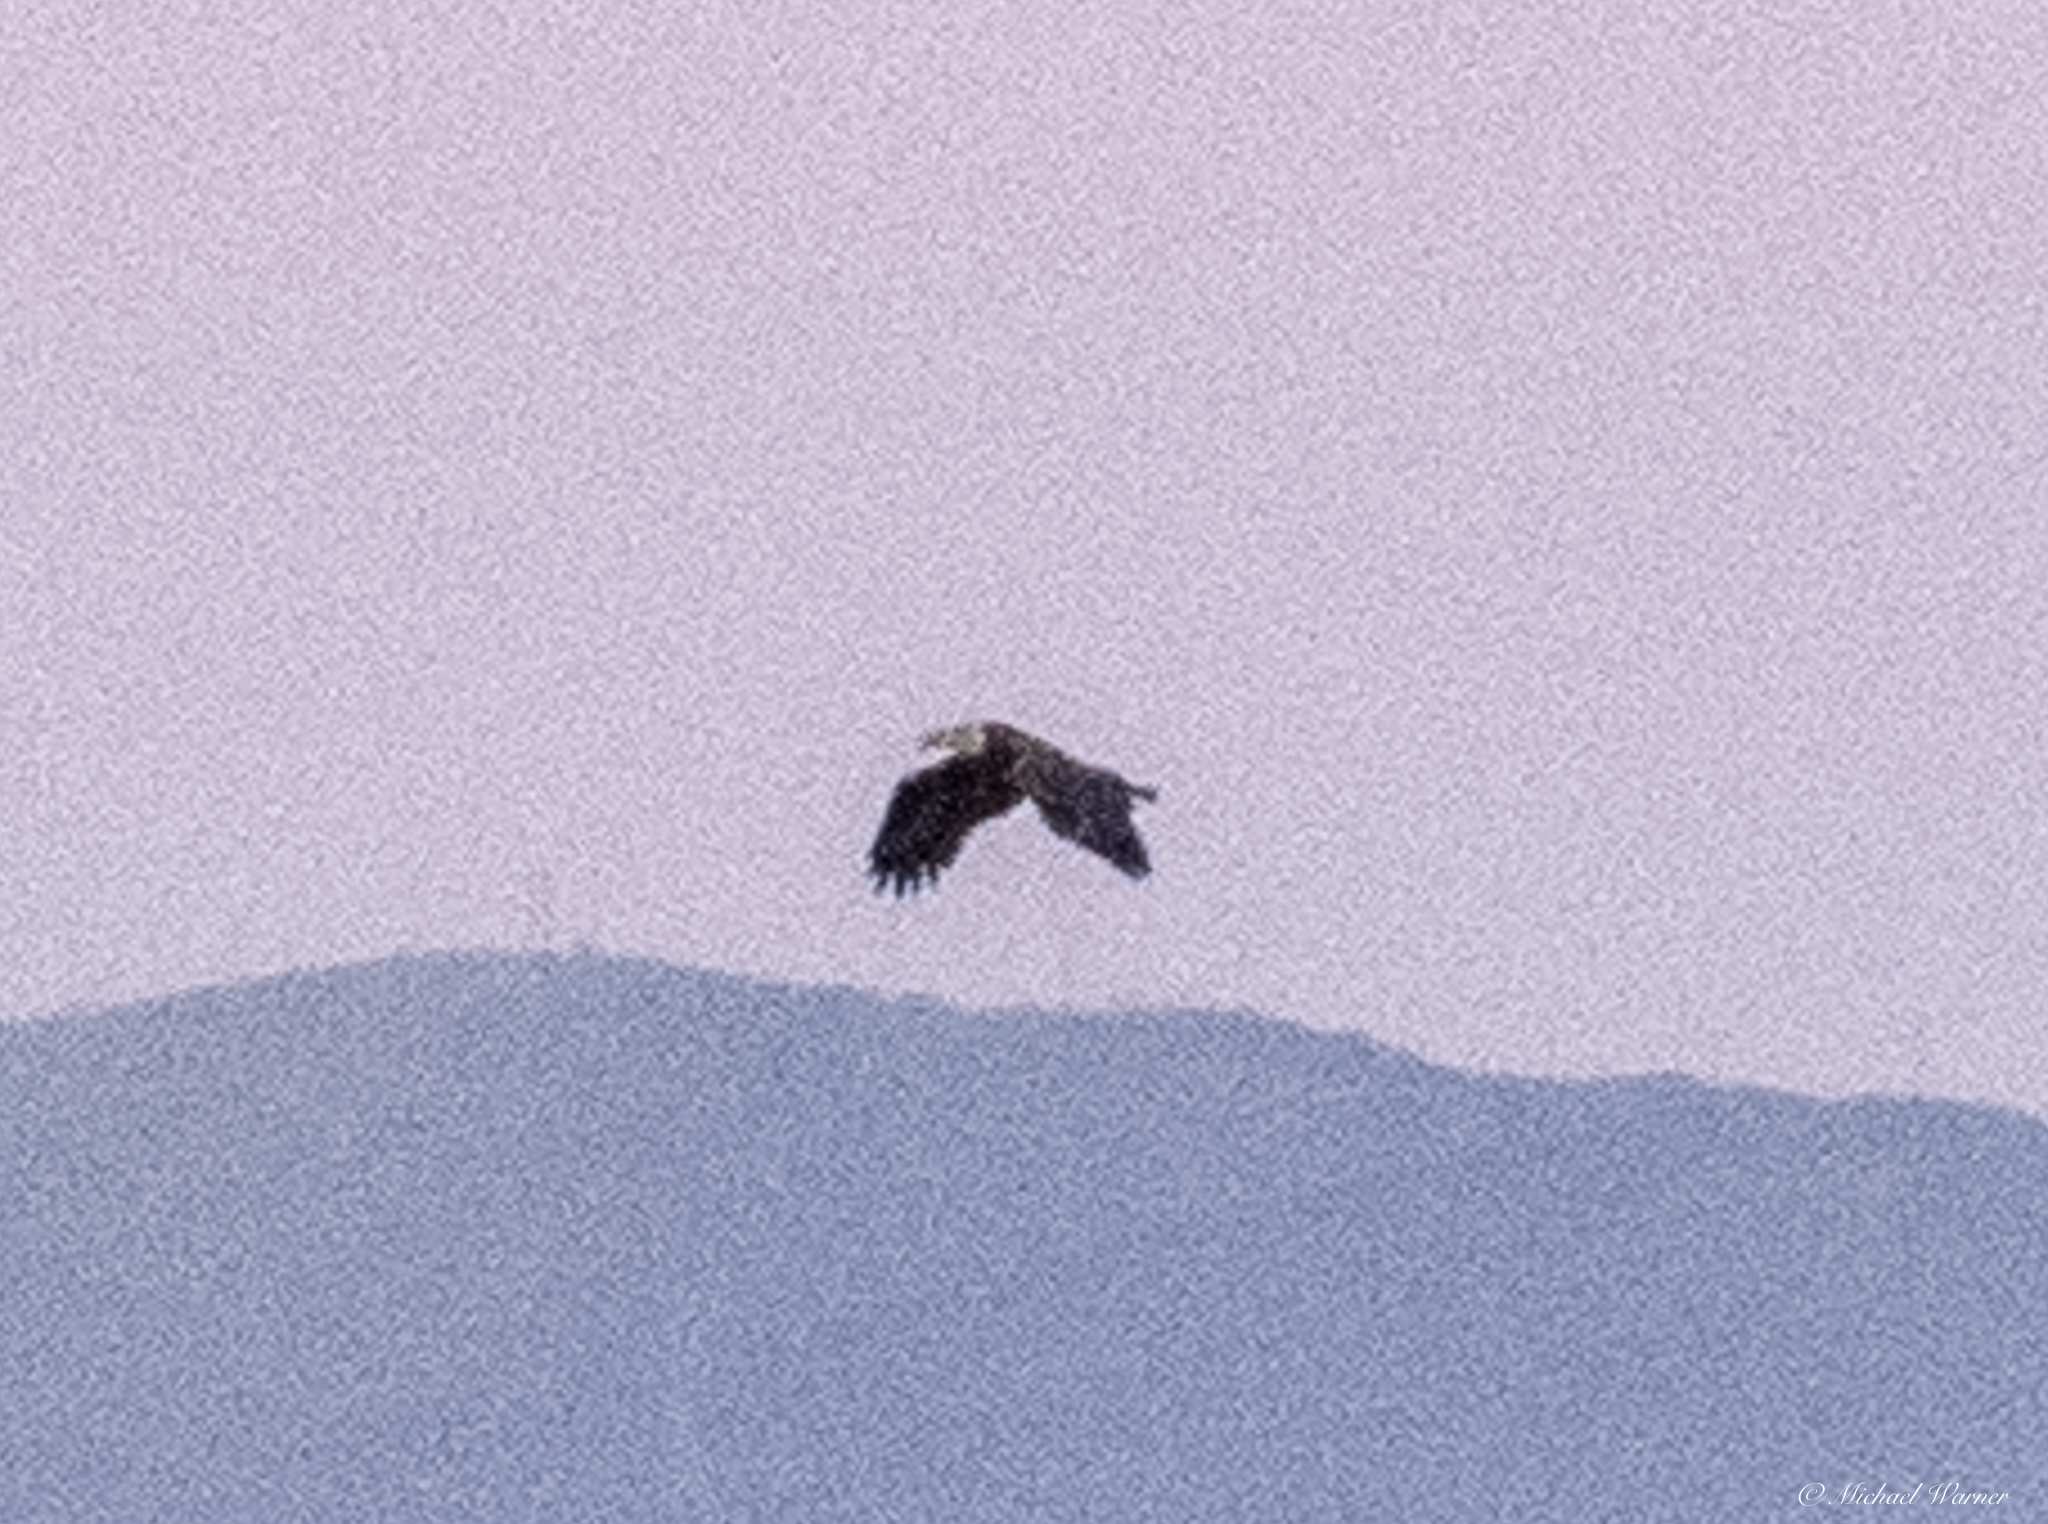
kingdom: Animalia
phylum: Chordata
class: Aves
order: Accipitriformes
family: Accipitridae
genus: Haliaeetus
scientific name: Haliaeetus leucocephalus
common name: Bald eagle
